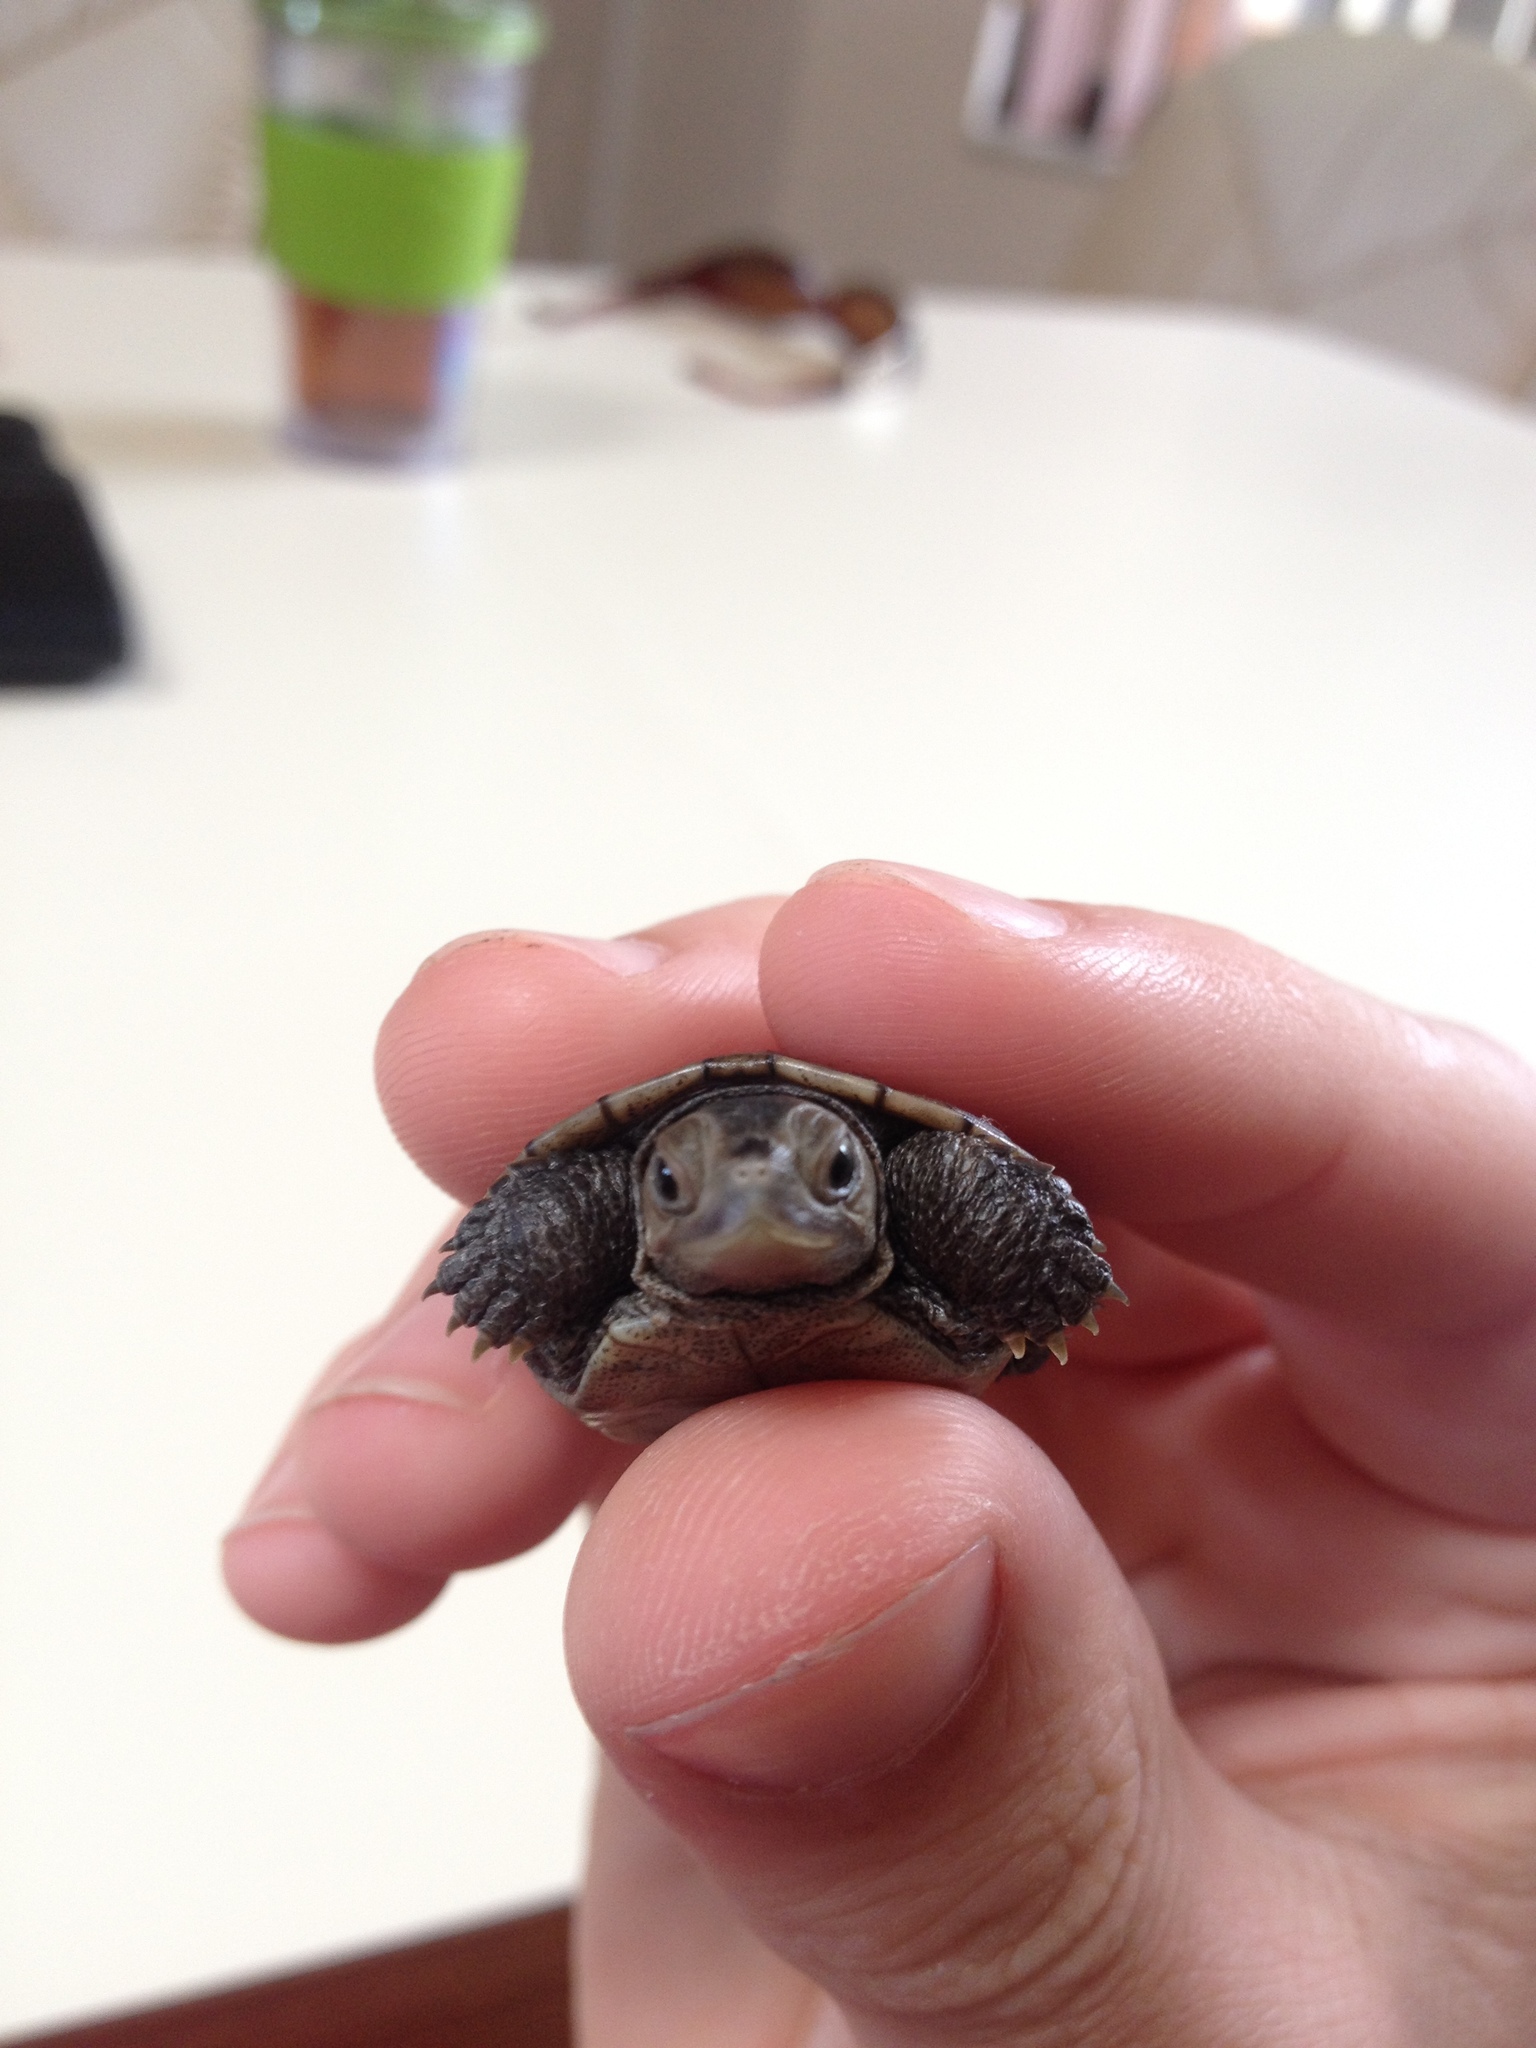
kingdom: Animalia
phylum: Chordata
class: Testudines
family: Emydidae
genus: Malaclemys
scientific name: Malaclemys terrapin
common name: Diamondback terrapin
